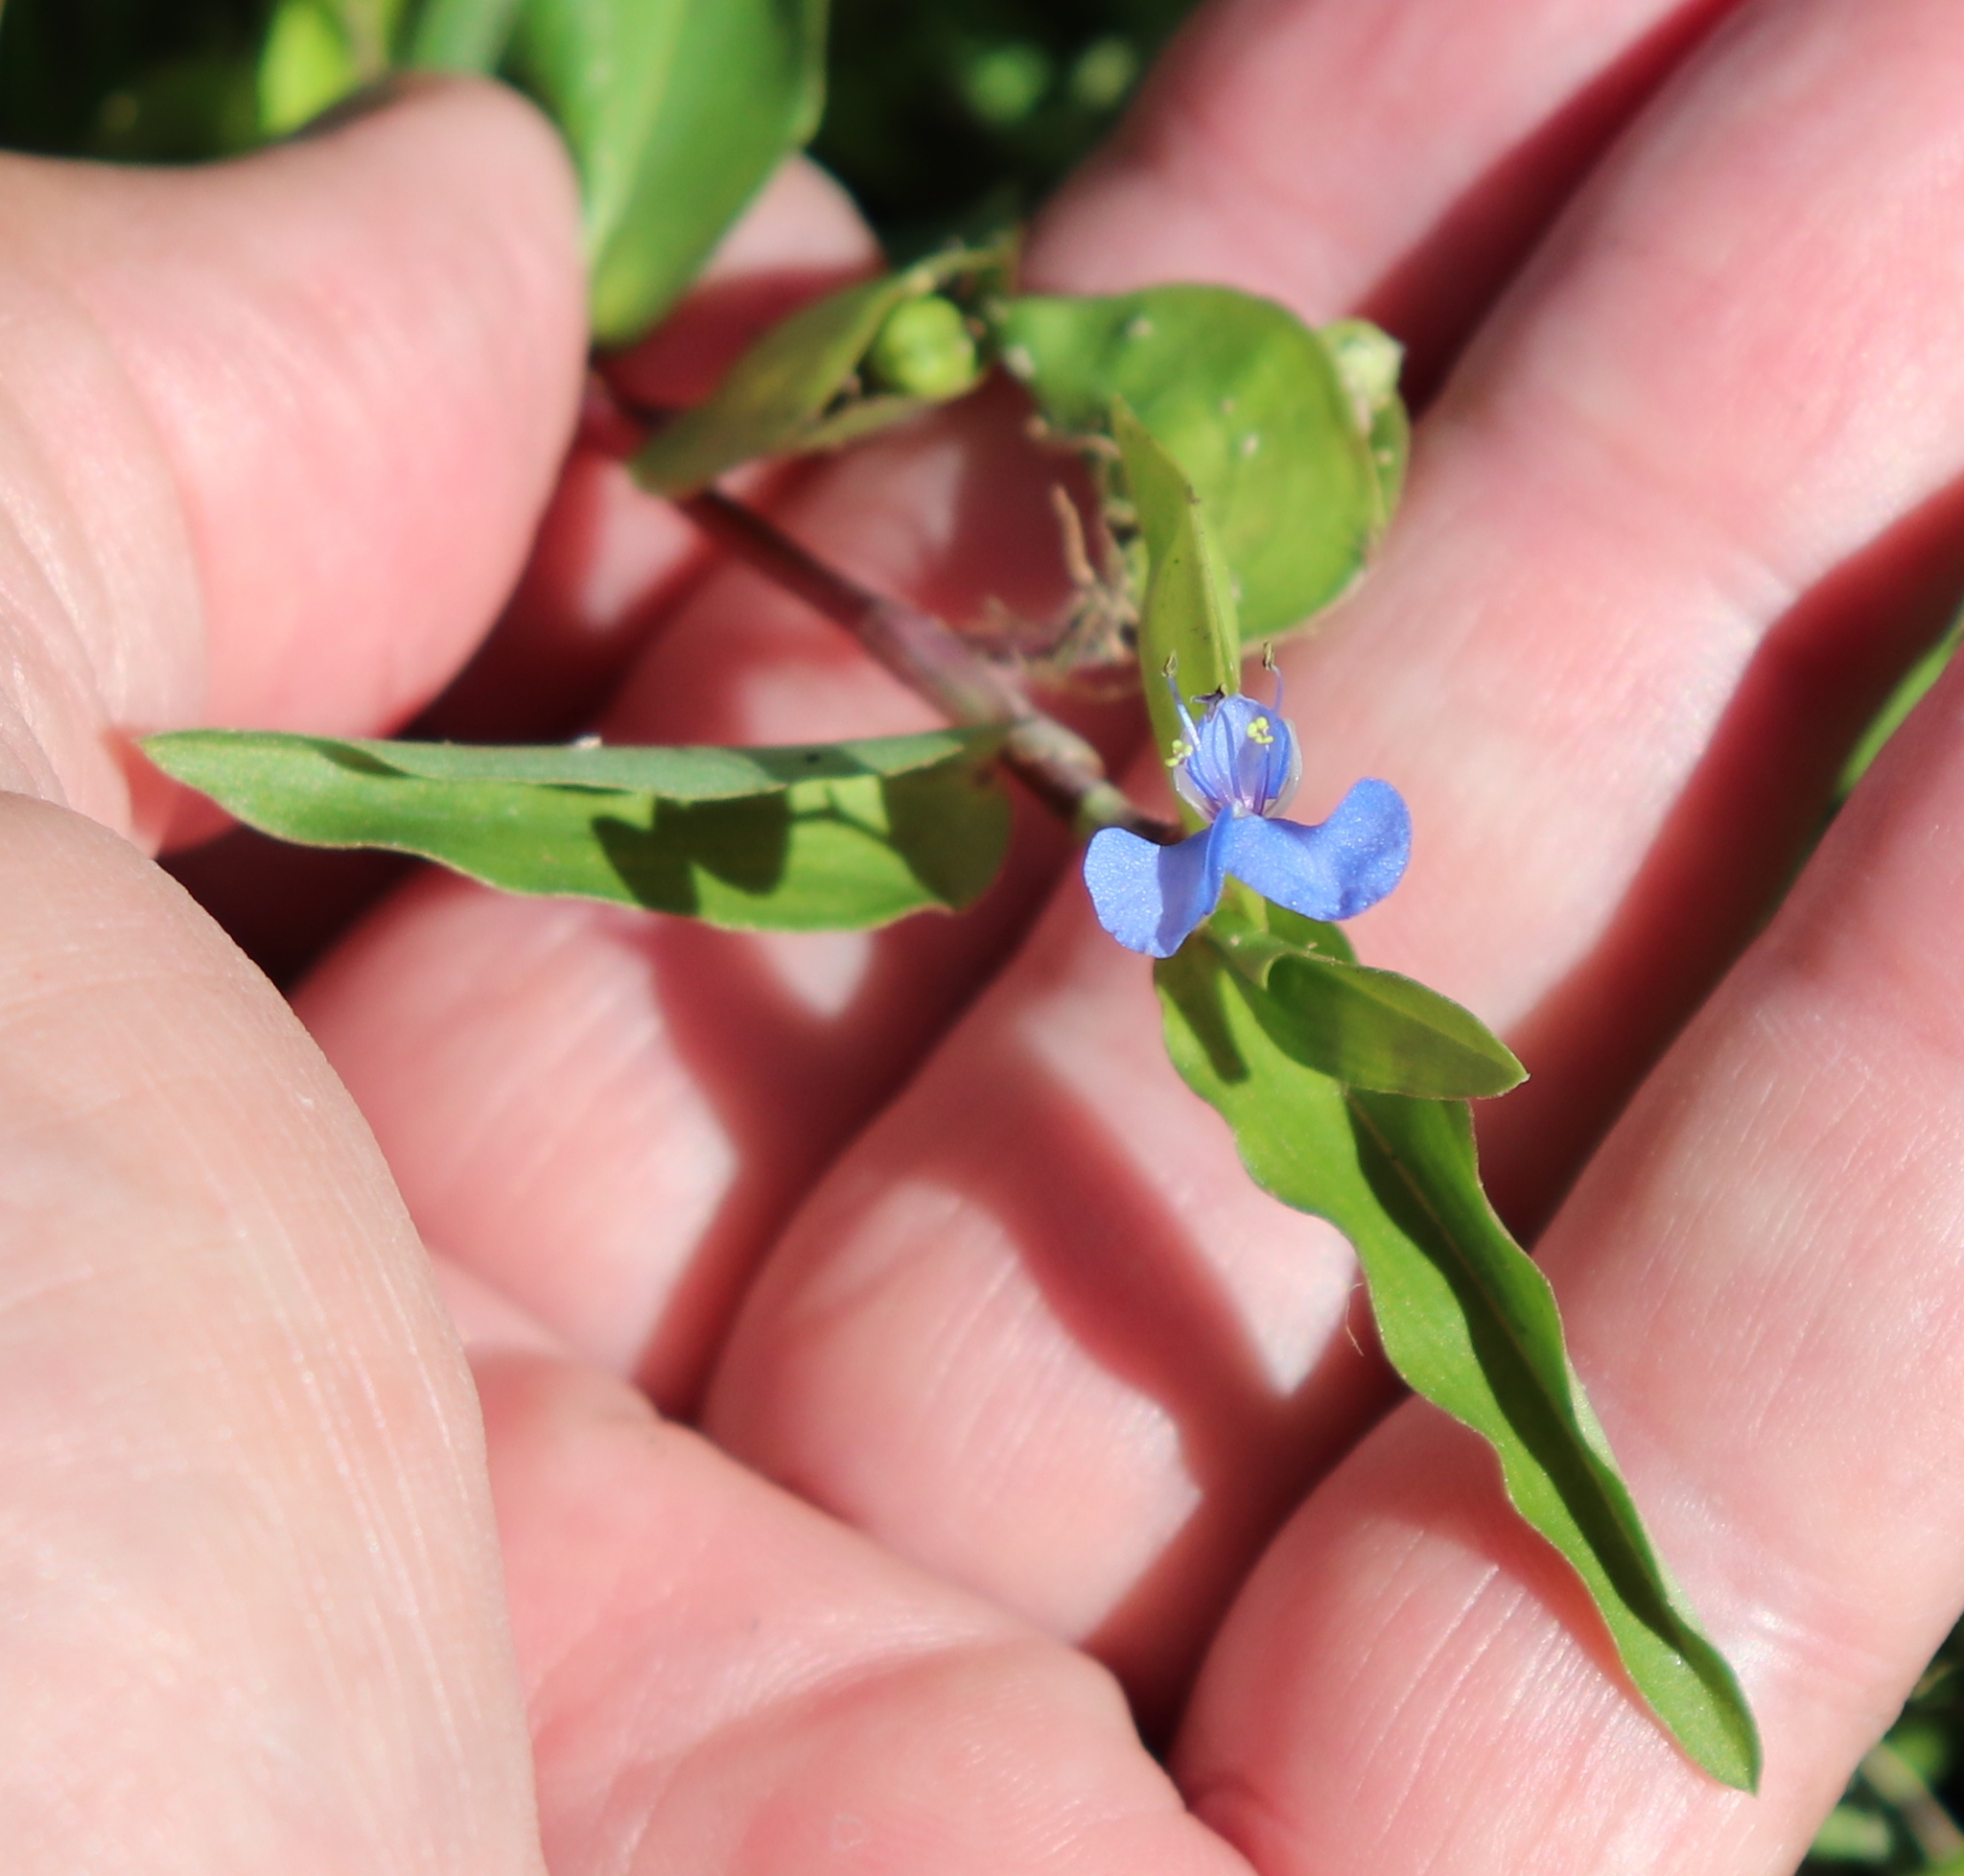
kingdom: Plantae
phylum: Tracheophyta
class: Liliopsida
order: Commelinales
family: Commelinaceae
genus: Commelina
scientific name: Commelina virginica
